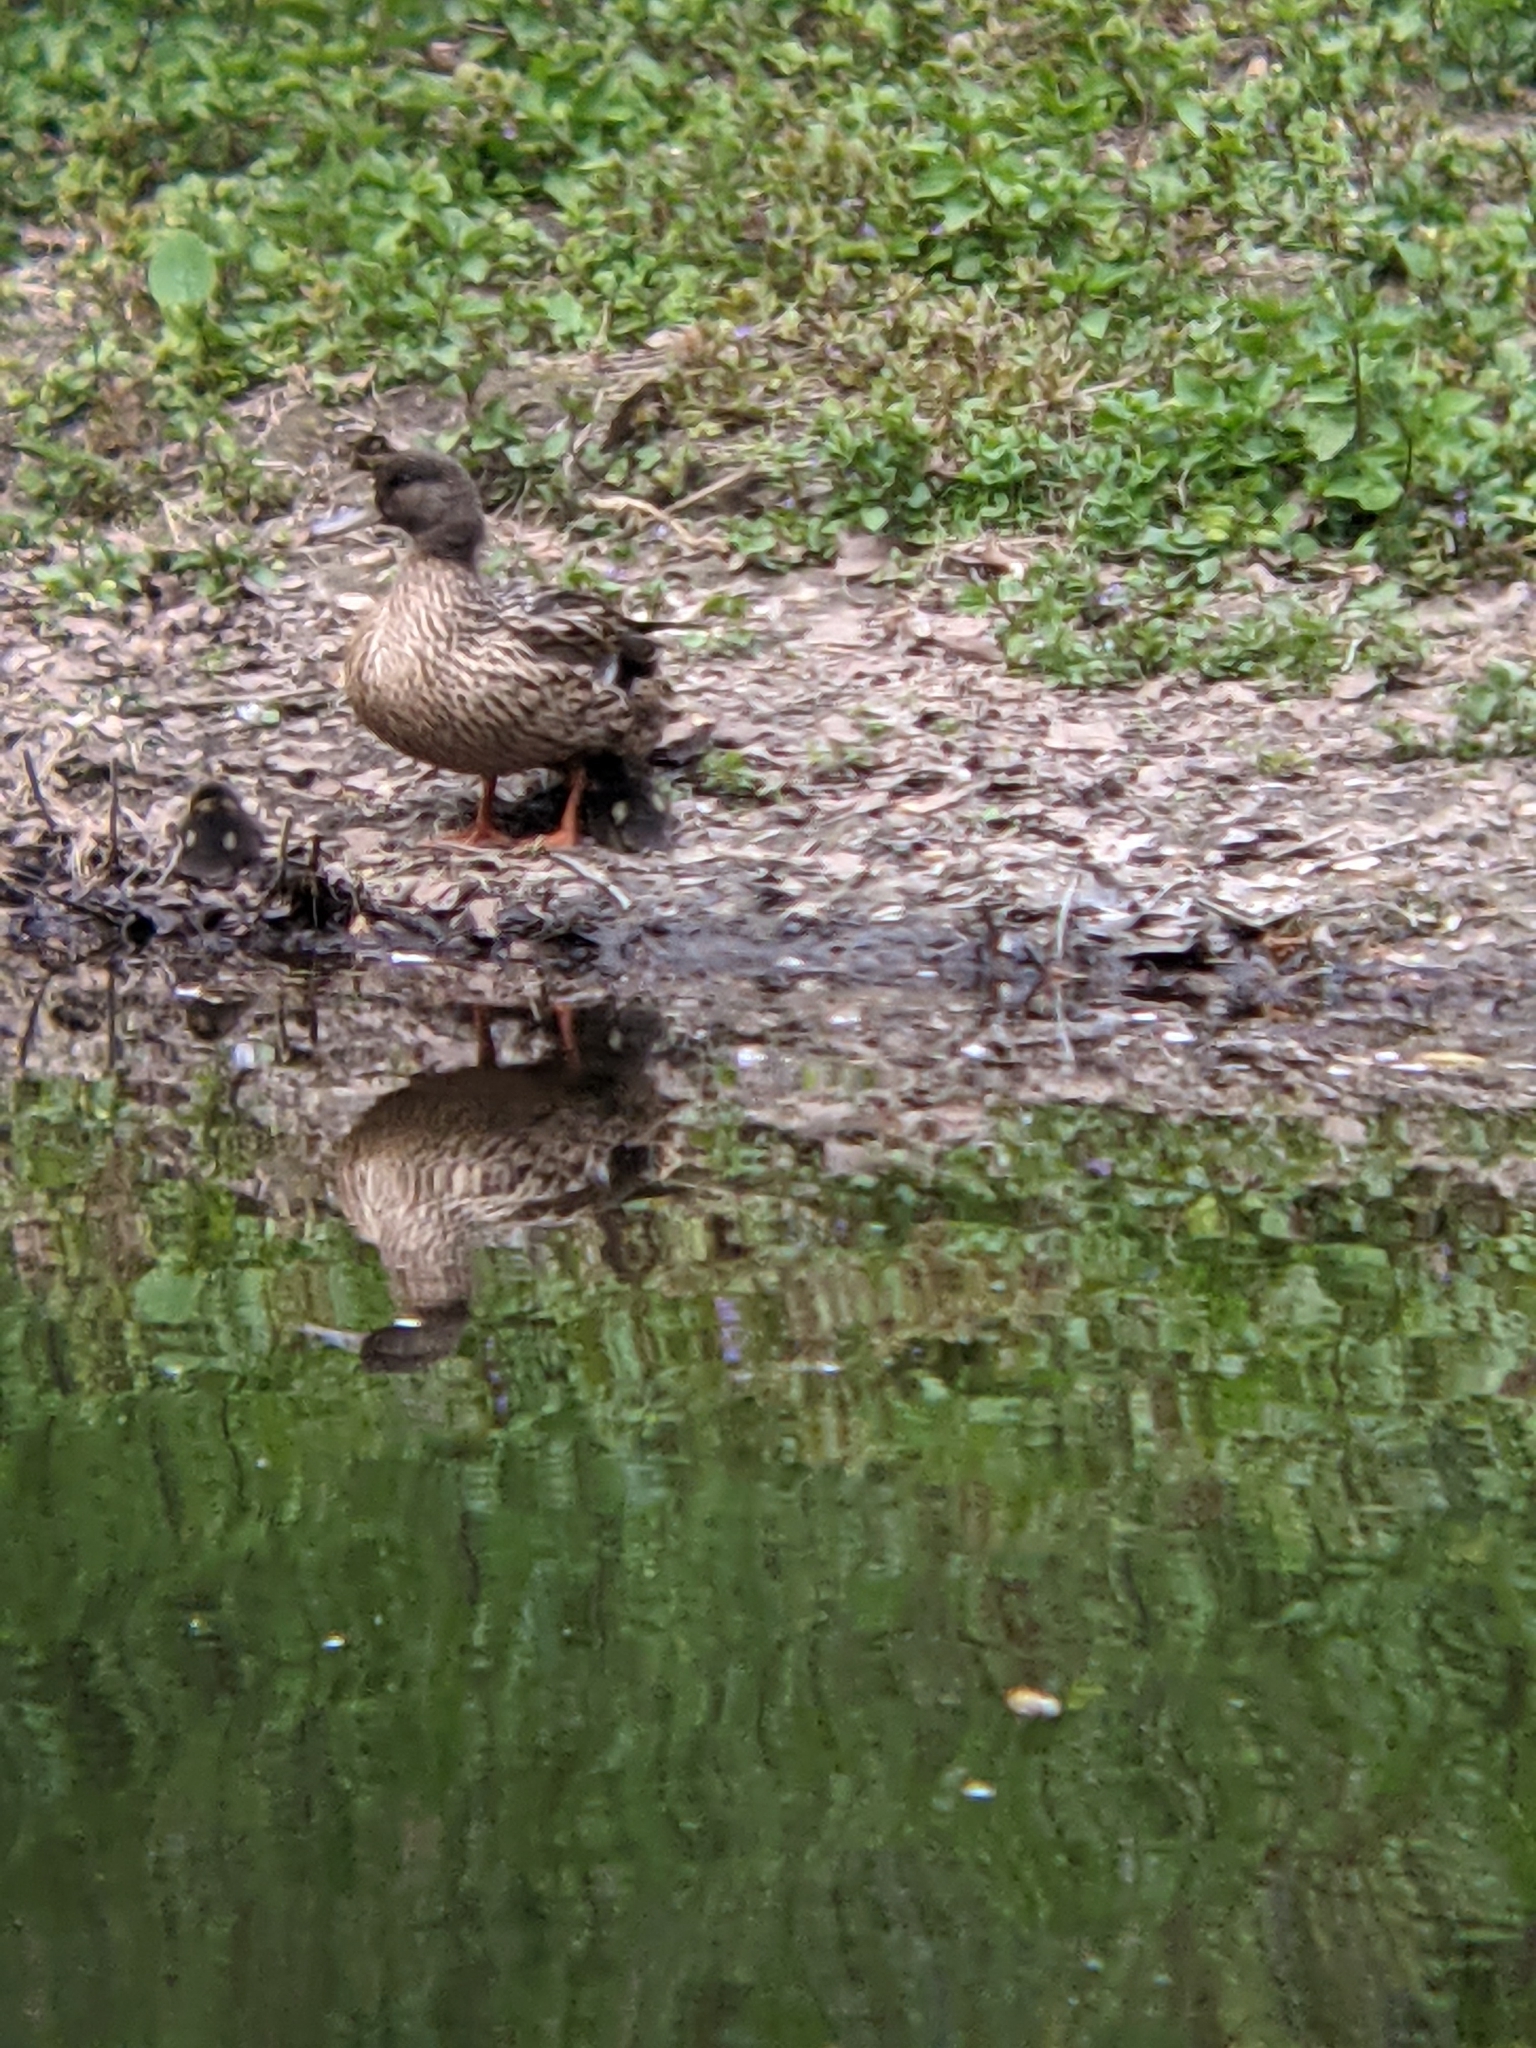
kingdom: Animalia
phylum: Chordata
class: Aves
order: Anseriformes
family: Anatidae
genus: Anas
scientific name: Anas platyrhynchos
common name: Mallard
